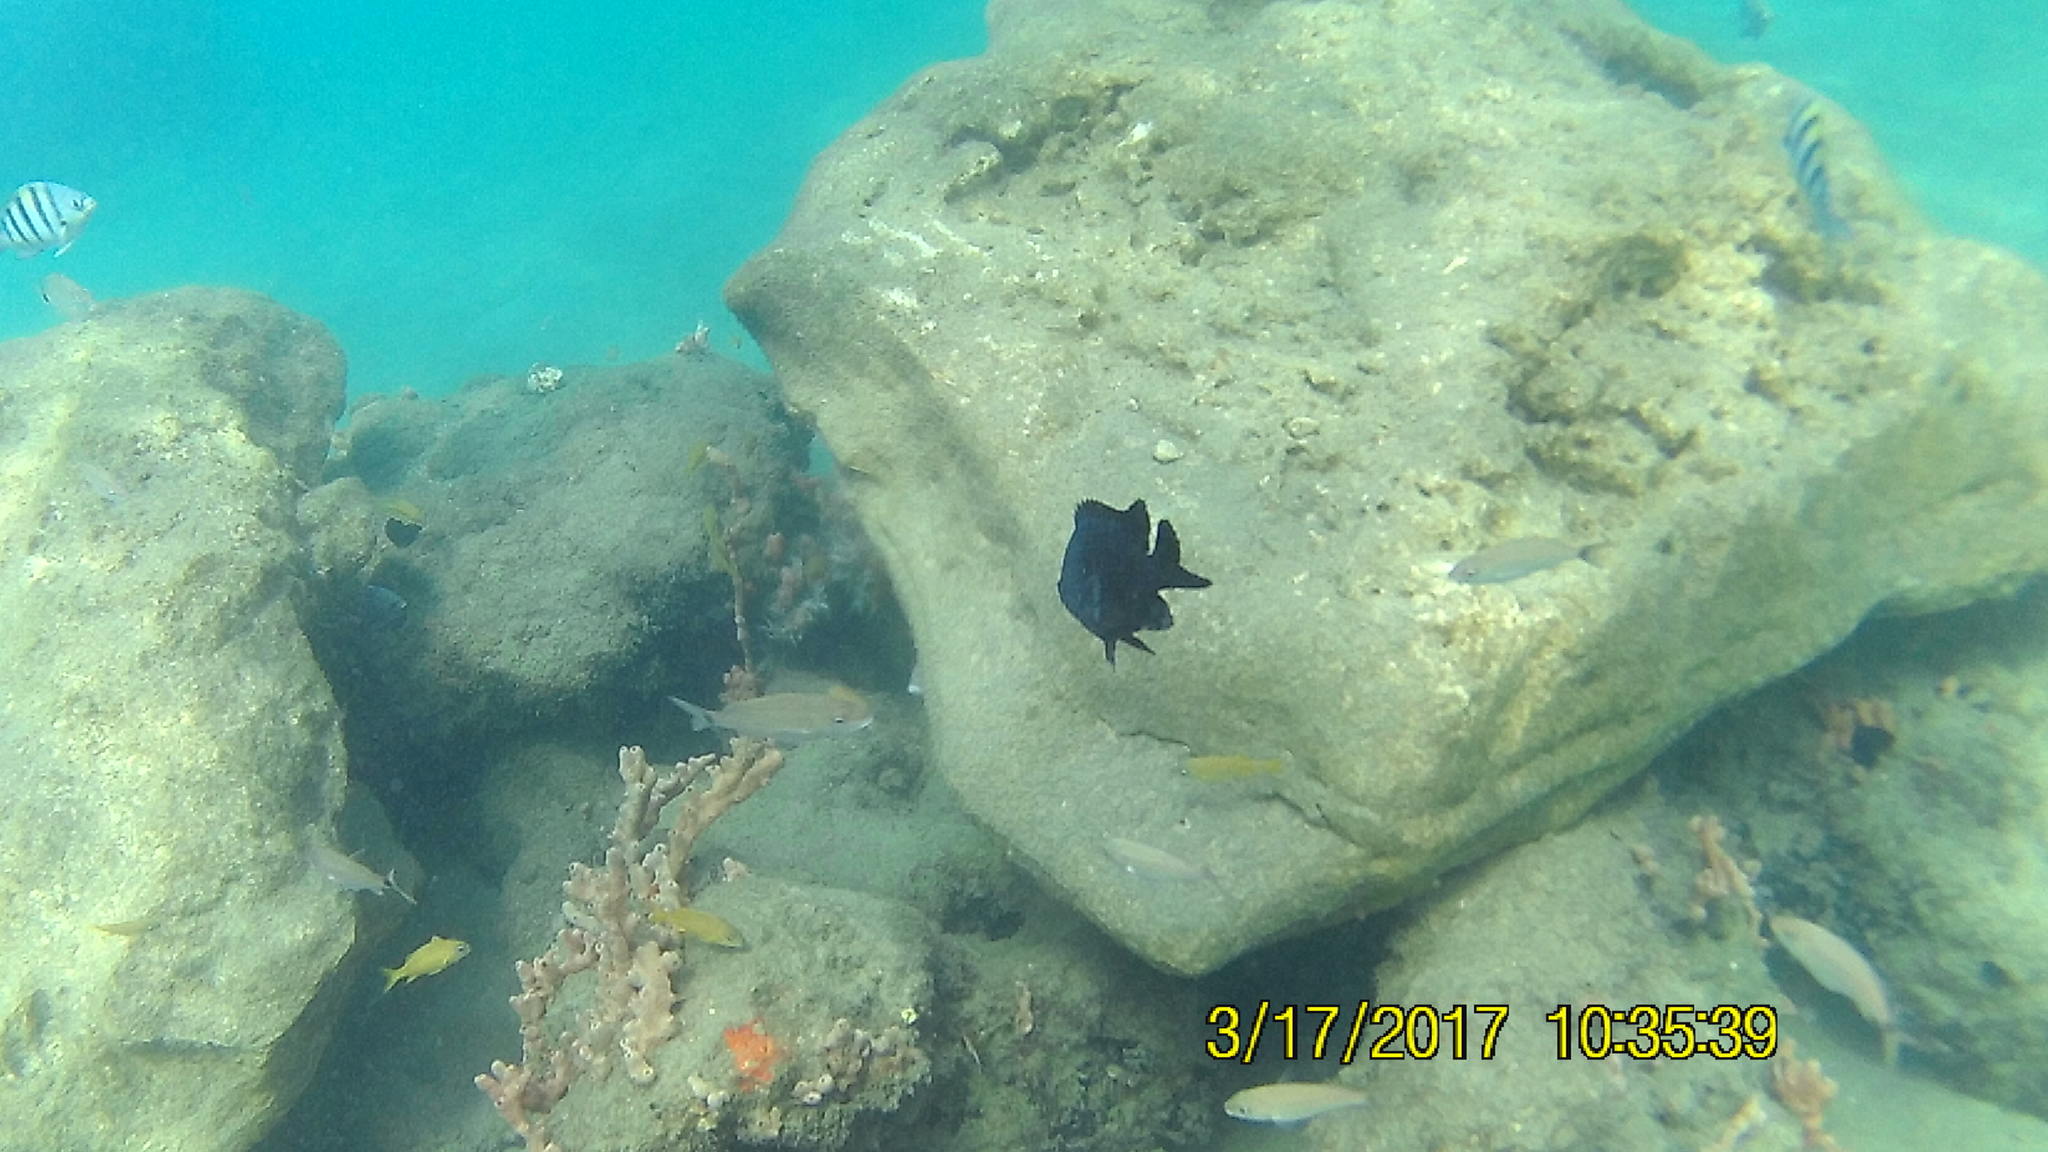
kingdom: Animalia
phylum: Chordata
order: Perciformes
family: Pomacentridae
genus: Abudefduf
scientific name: Abudefduf saxatilis
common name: Sergeant major
